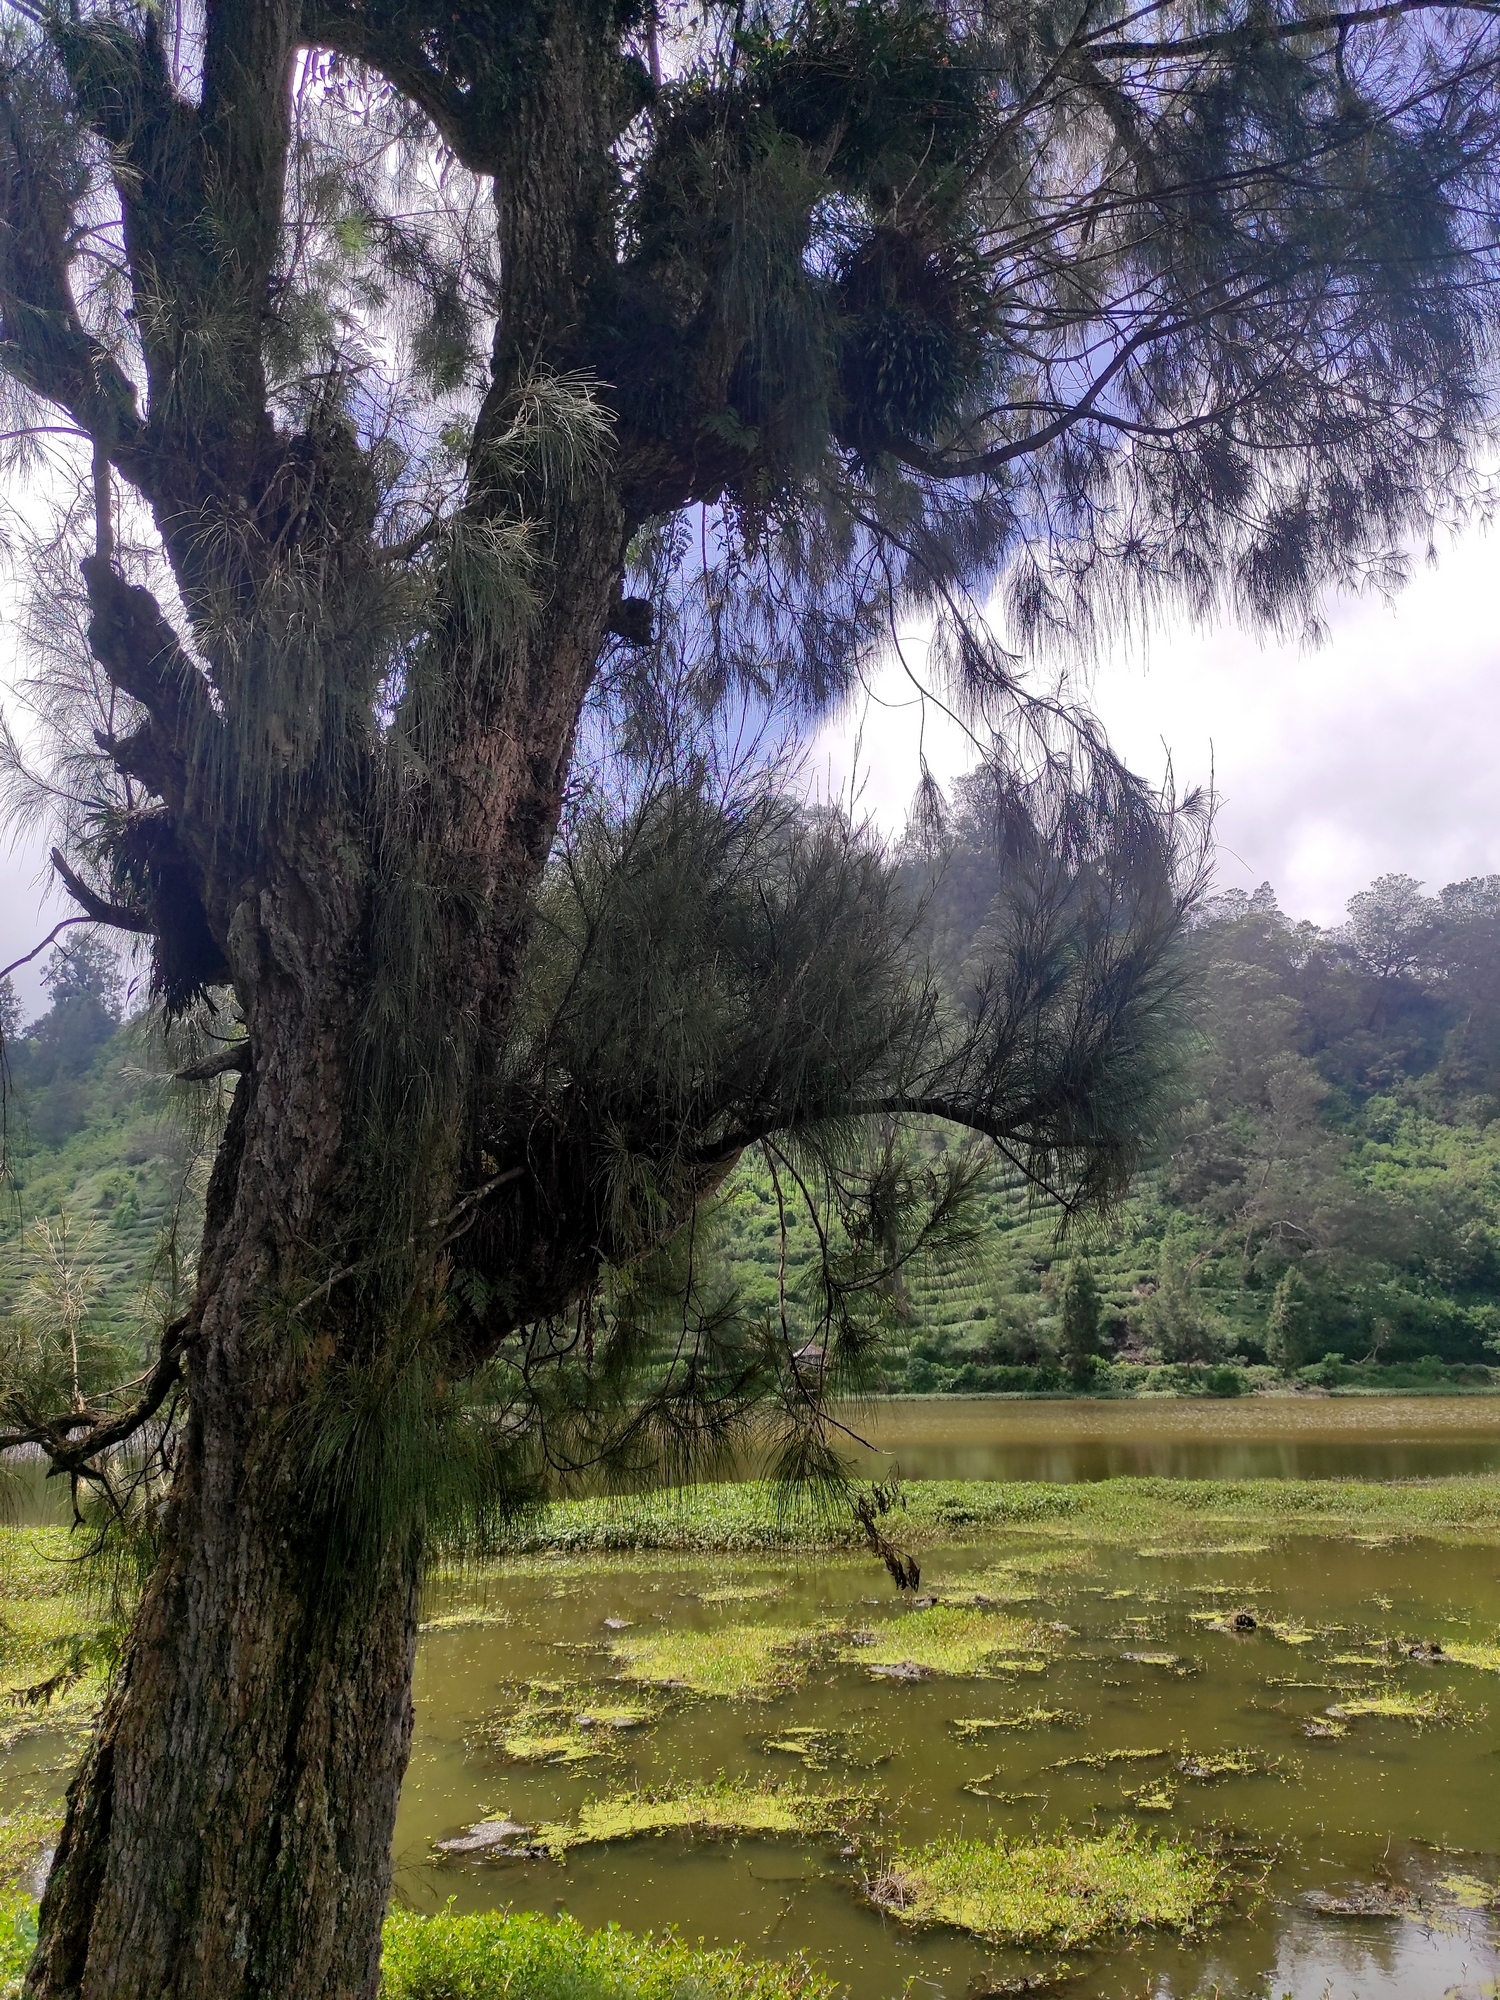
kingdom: Plantae
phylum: Tracheophyta
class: Magnoliopsida
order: Fagales
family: Casuarinaceae
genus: Casuarina
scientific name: Casuarina junghuhniana
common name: Mountain ru
